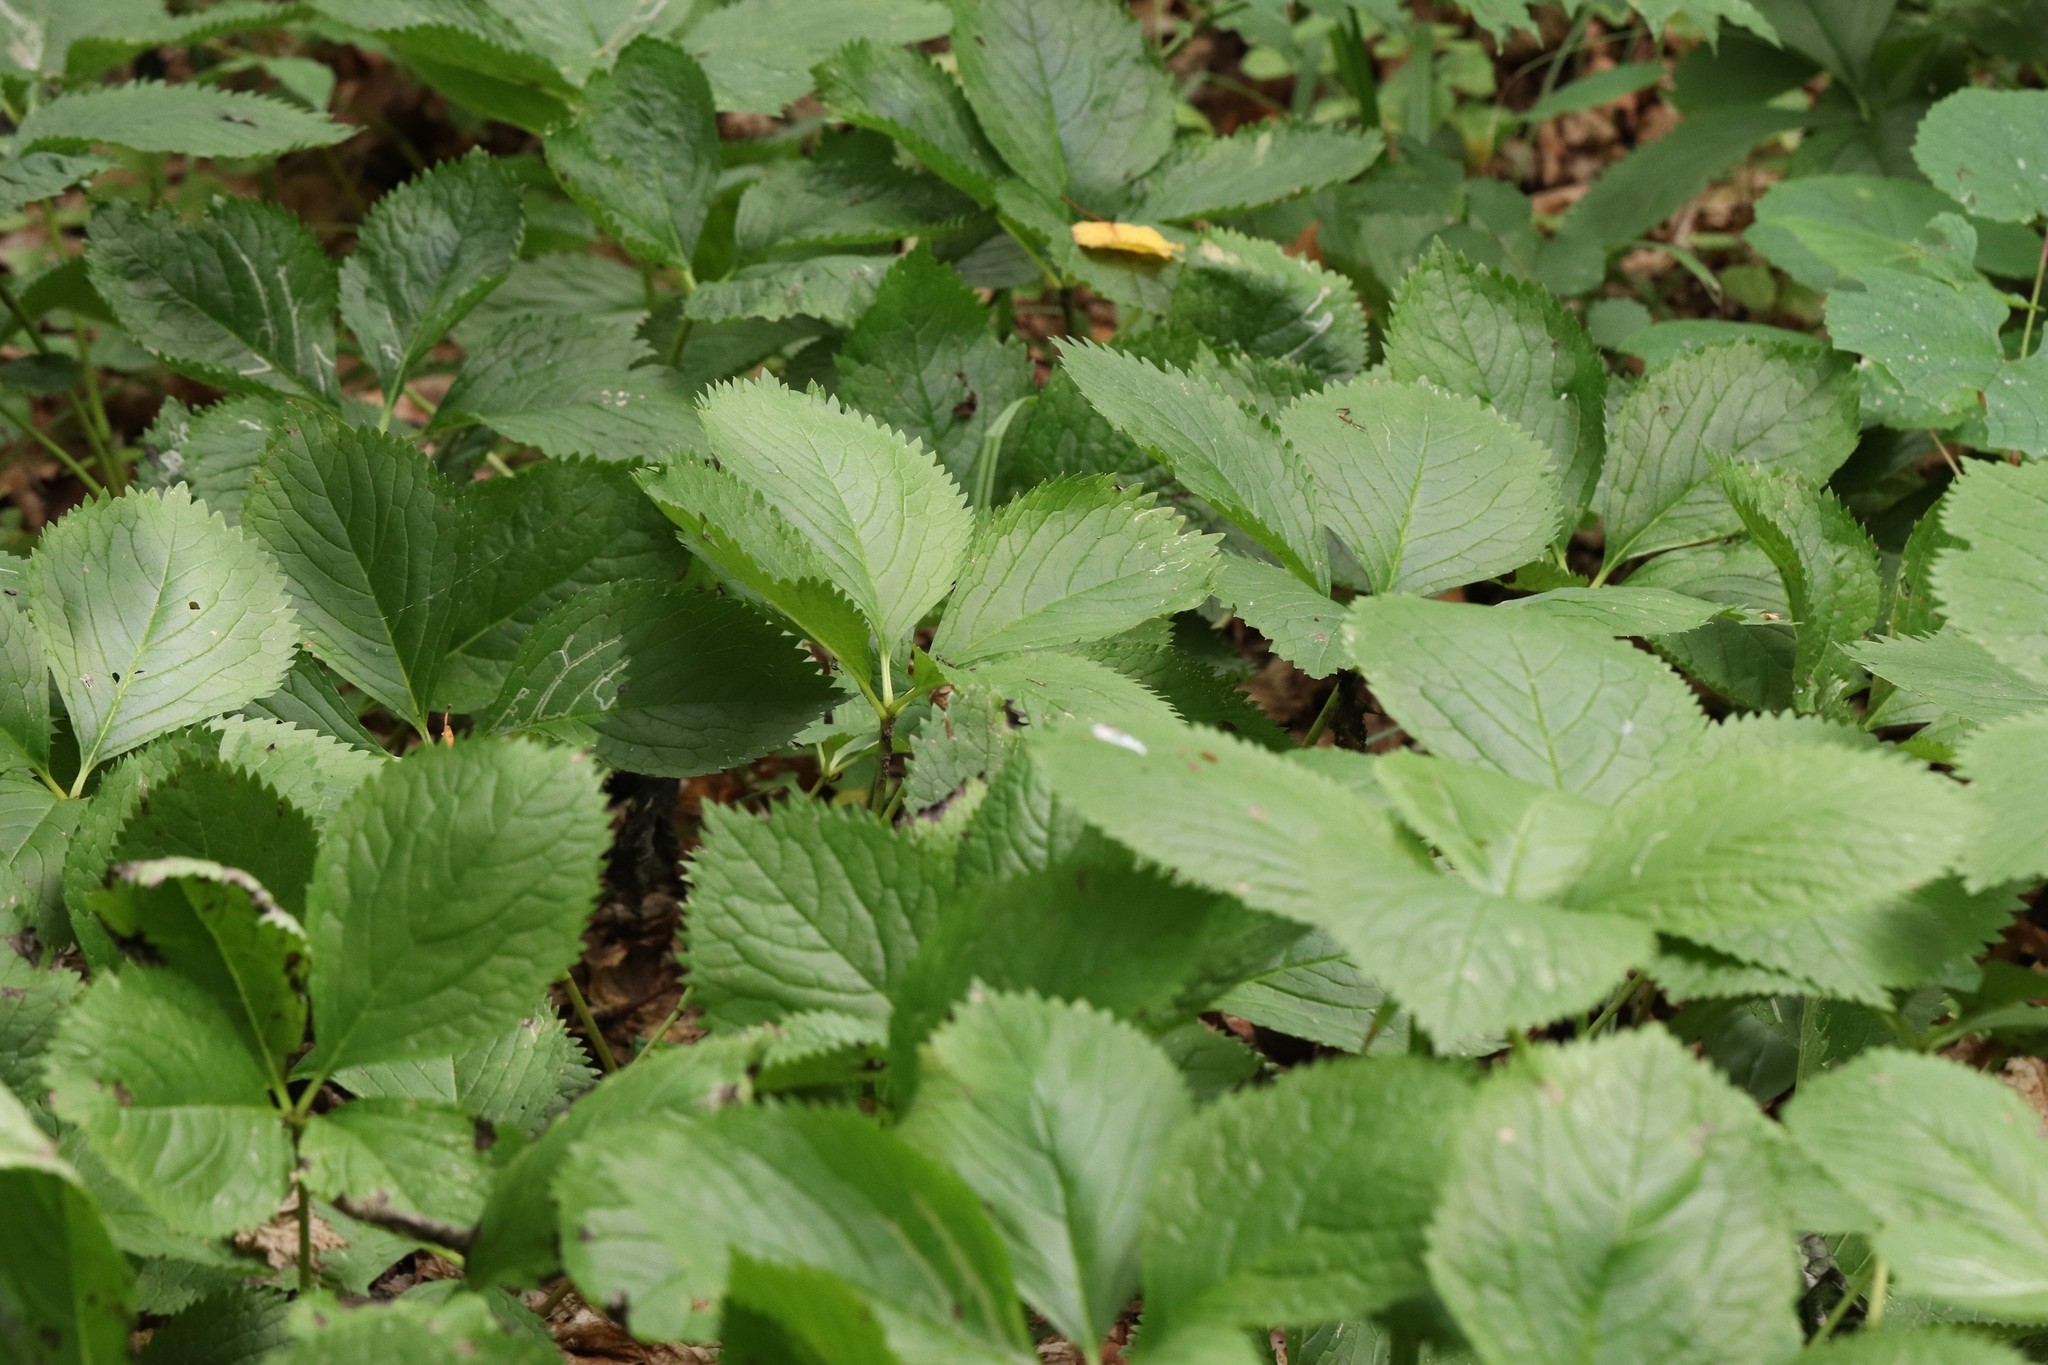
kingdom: Plantae
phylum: Tracheophyta
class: Magnoliopsida
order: Chloranthales
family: Chloranthaceae
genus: Chloranthus
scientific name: Chloranthus quadrifolius
